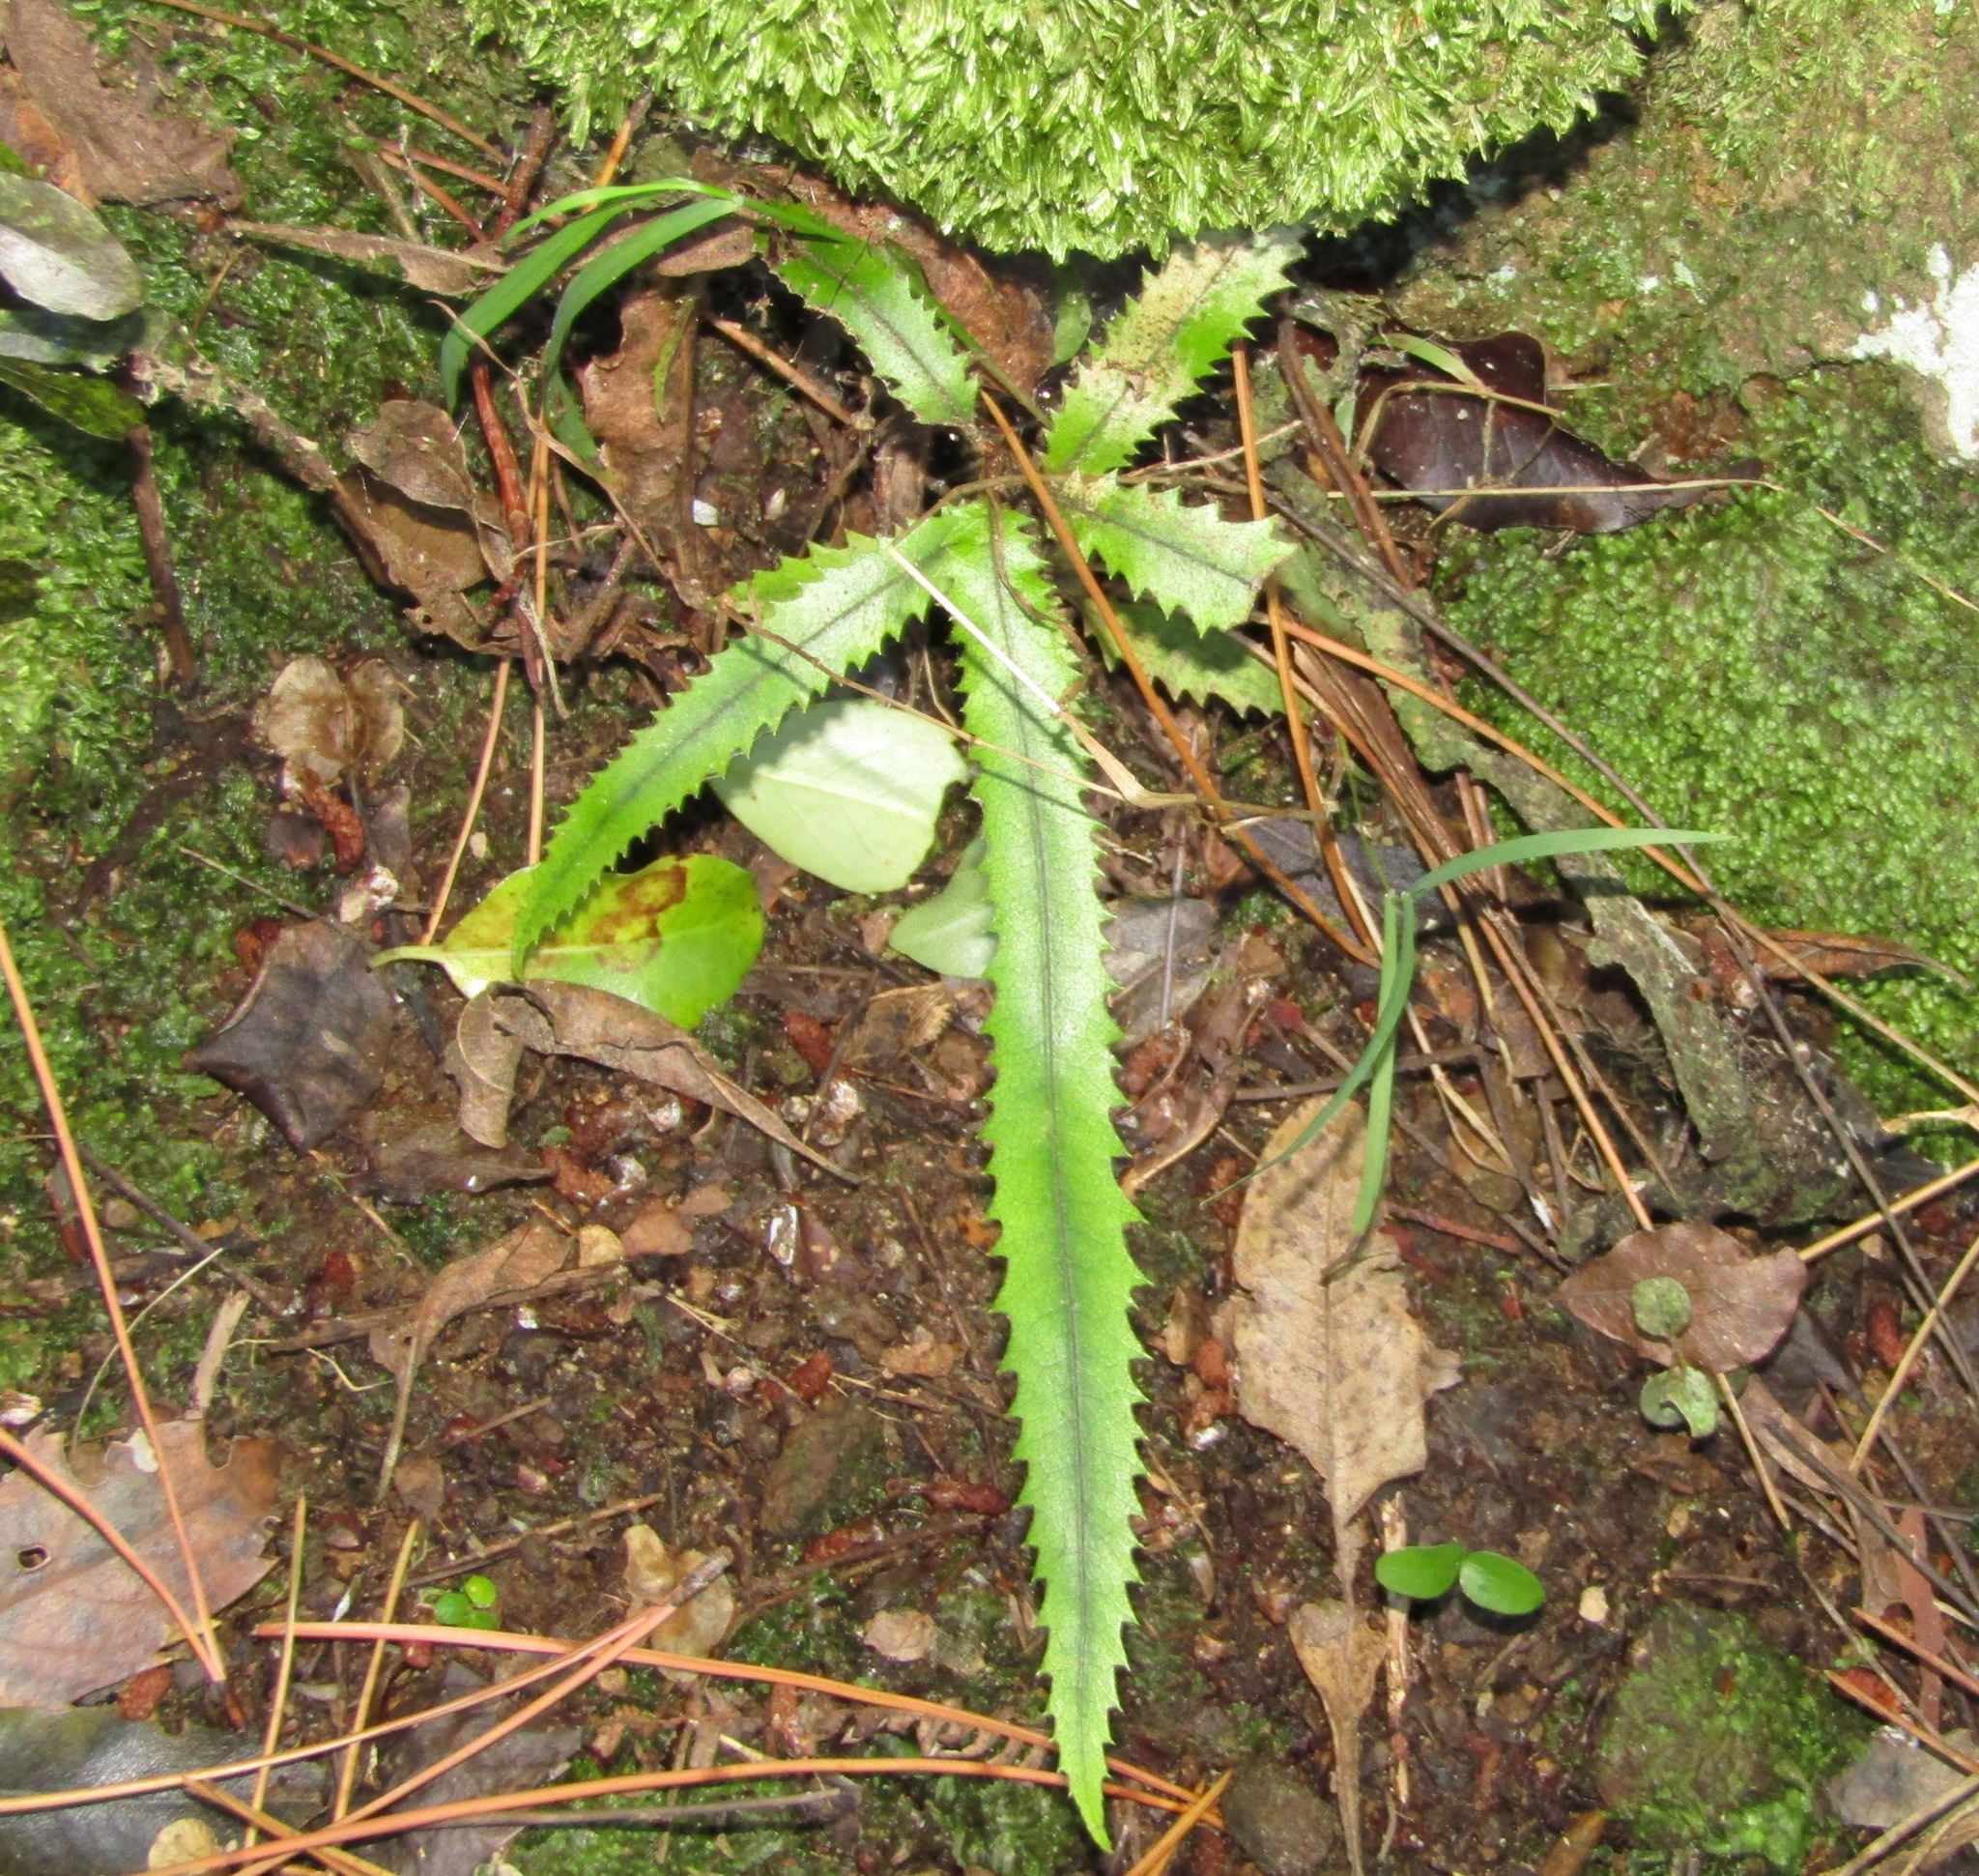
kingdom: Plantae
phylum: Tracheophyta
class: Magnoliopsida
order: Proteales
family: Proteaceae
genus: Knightia
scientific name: Knightia excelsa
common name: New zealand-honeysuckle
